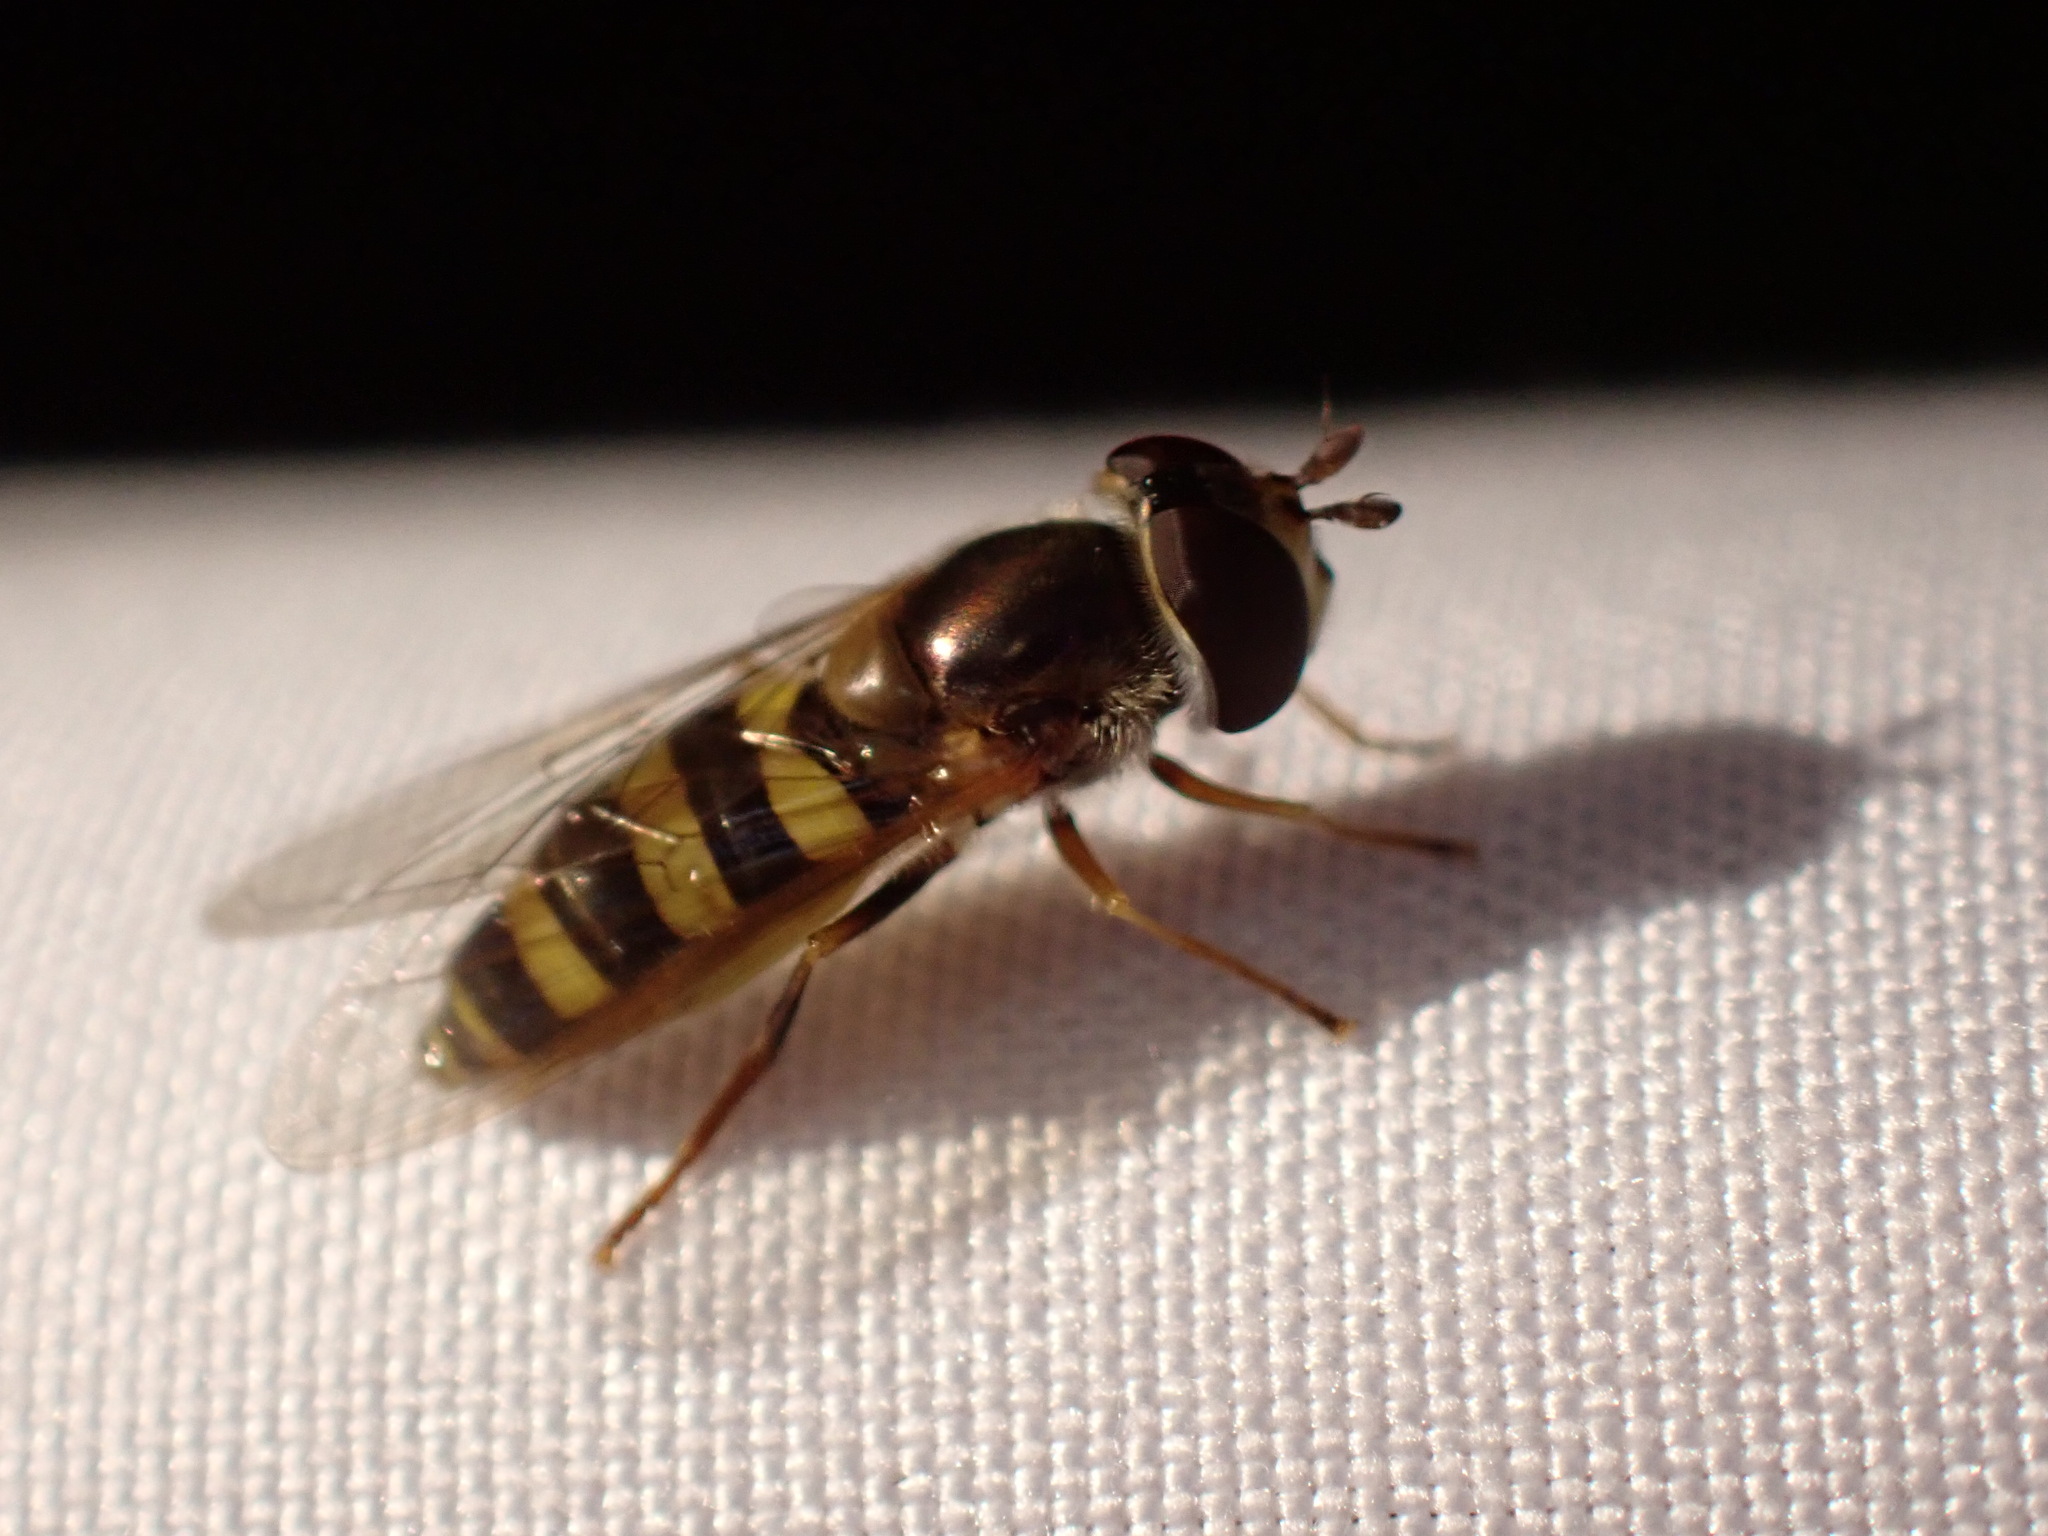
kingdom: Animalia
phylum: Arthropoda
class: Insecta
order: Diptera
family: Syrphidae
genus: Eupeodes
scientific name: Eupeodes
